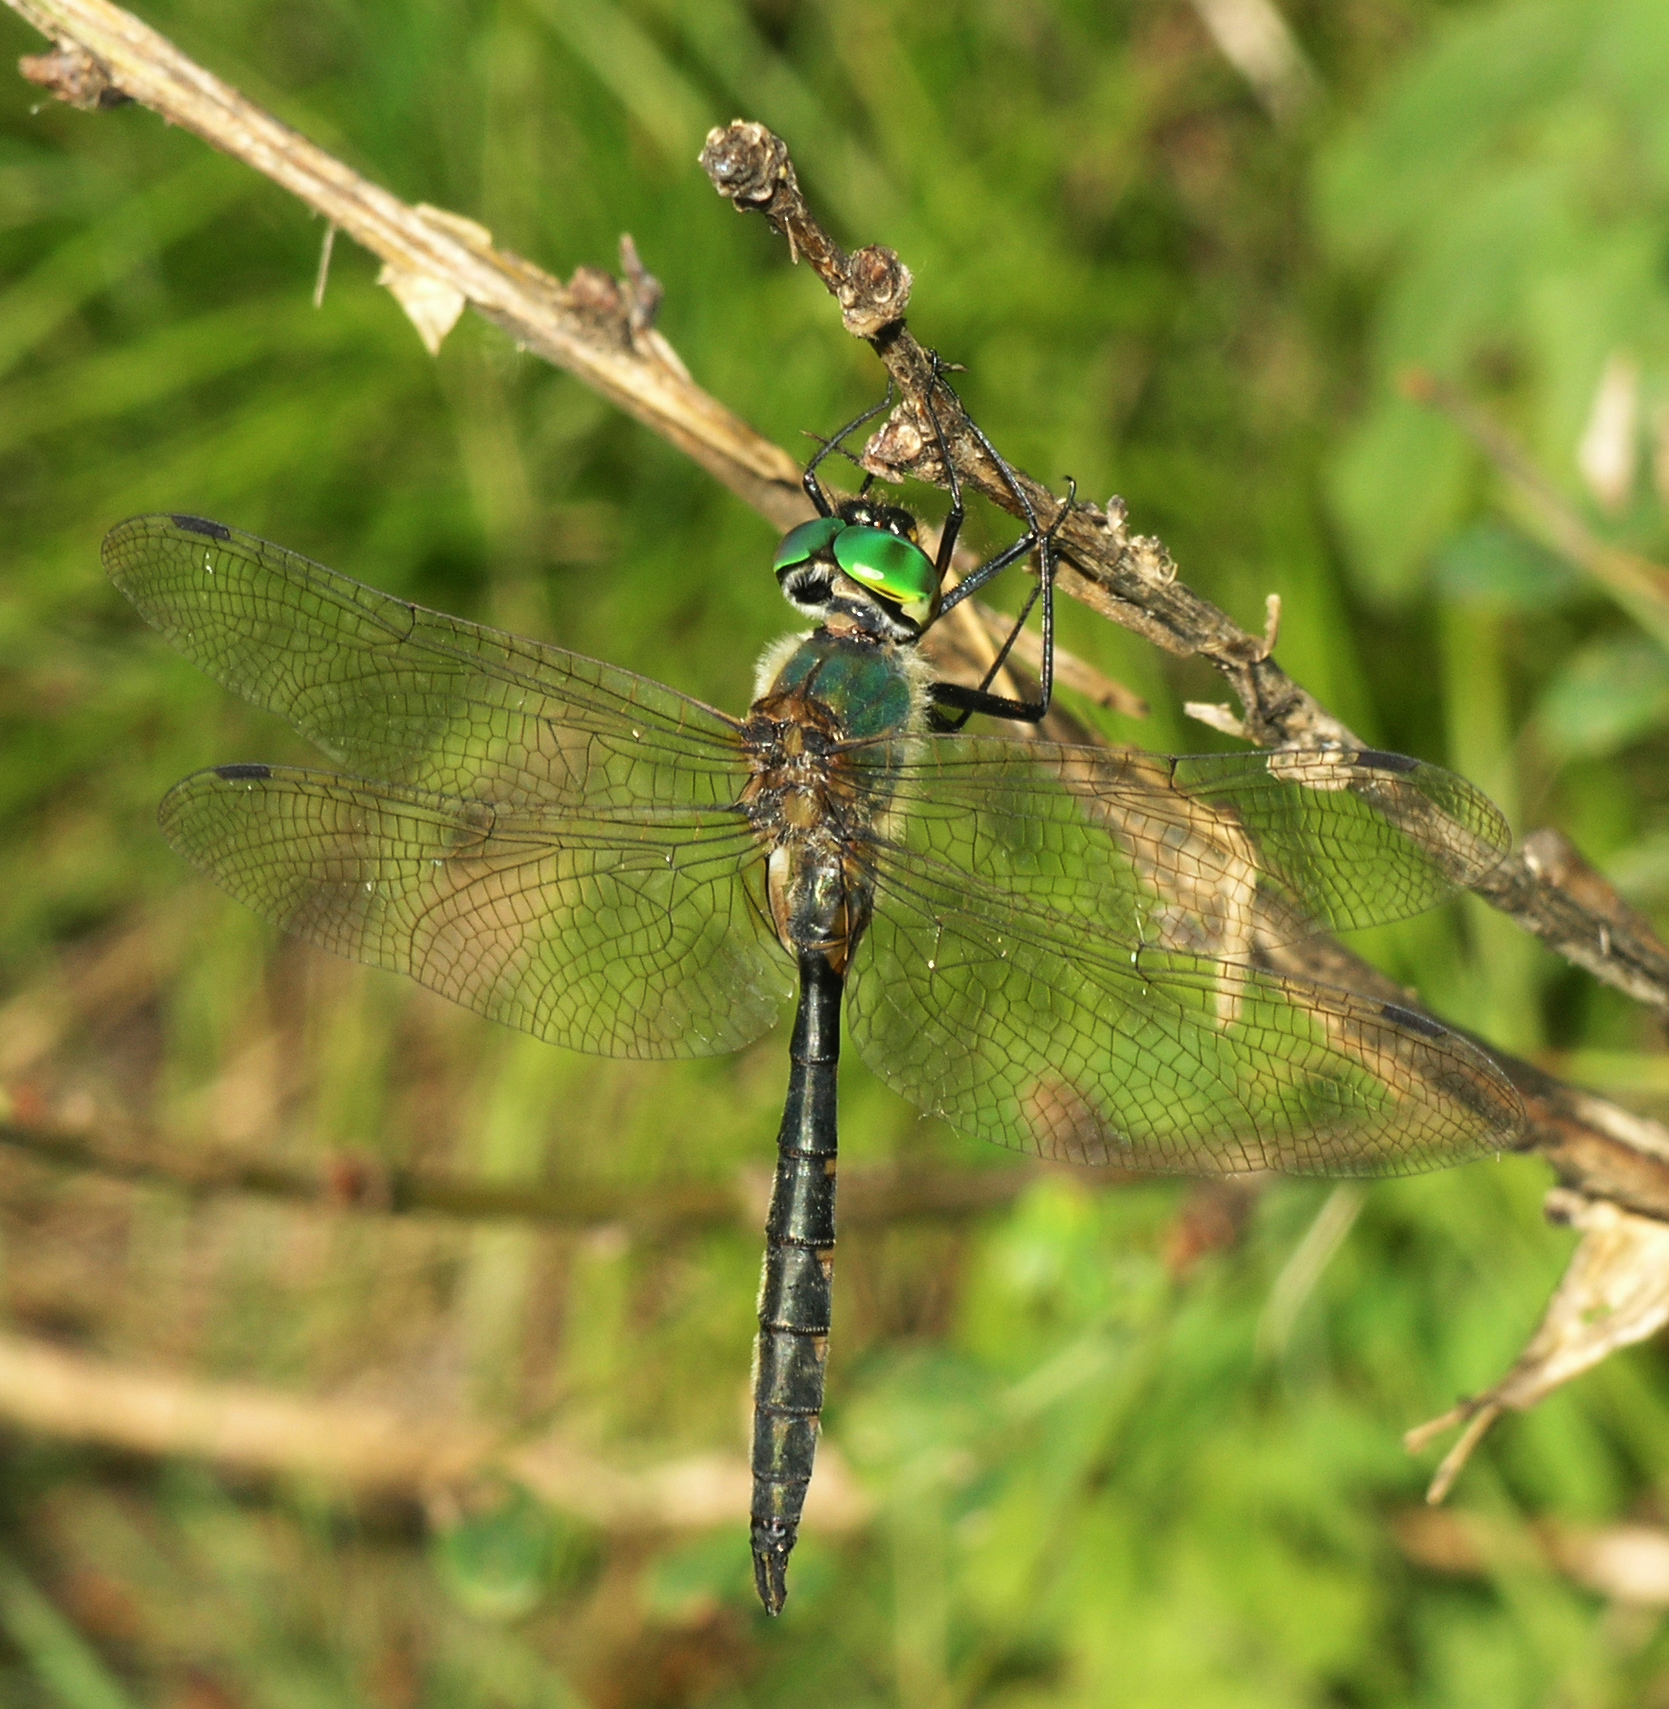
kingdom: Animalia
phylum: Arthropoda
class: Insecta
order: Odonata
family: Corduliidae
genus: Somatochlora
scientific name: Somatochlora flavomaculata
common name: Yellow-spotted emerald
